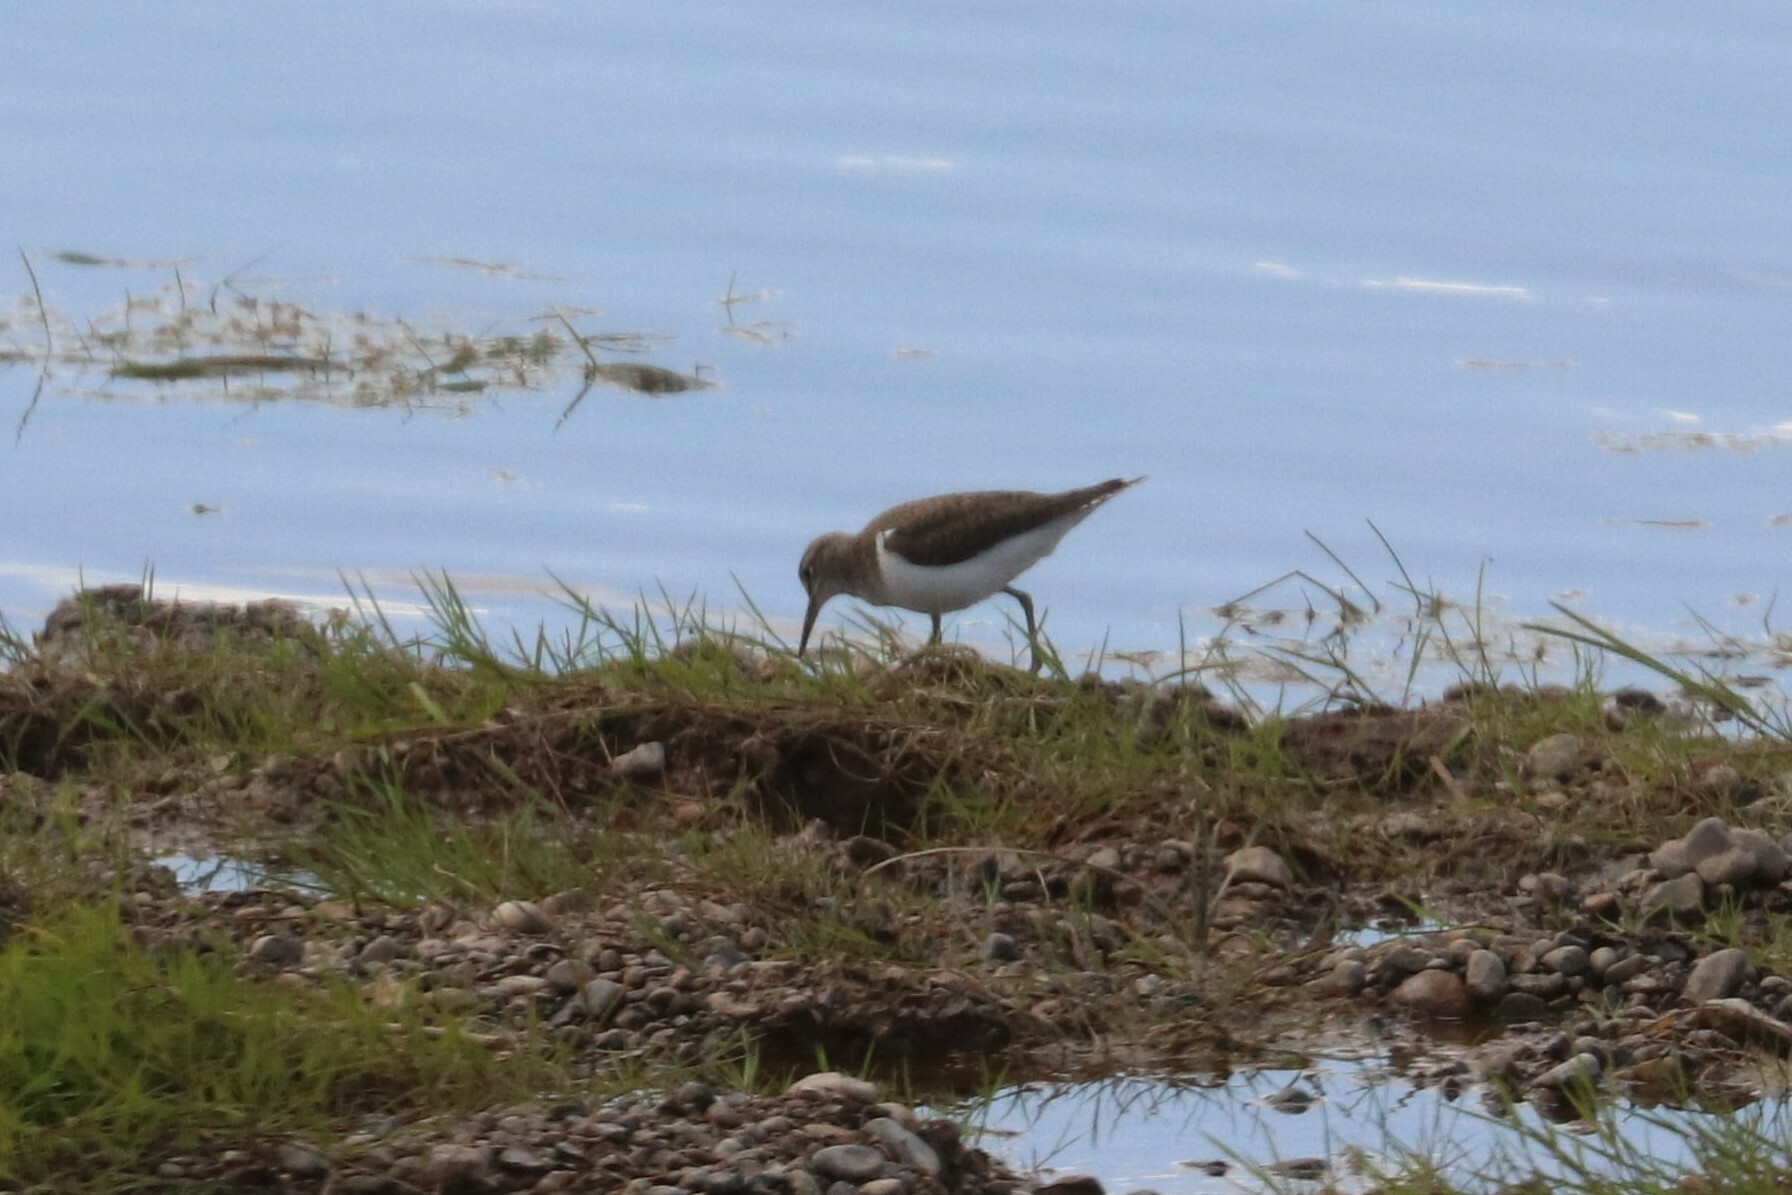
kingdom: Animalia
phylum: Chordata
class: Aves
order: Charadriiformes
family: Scolopacidae
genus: Actitis
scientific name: Actitis hypoleucos
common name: Common sandpiper
